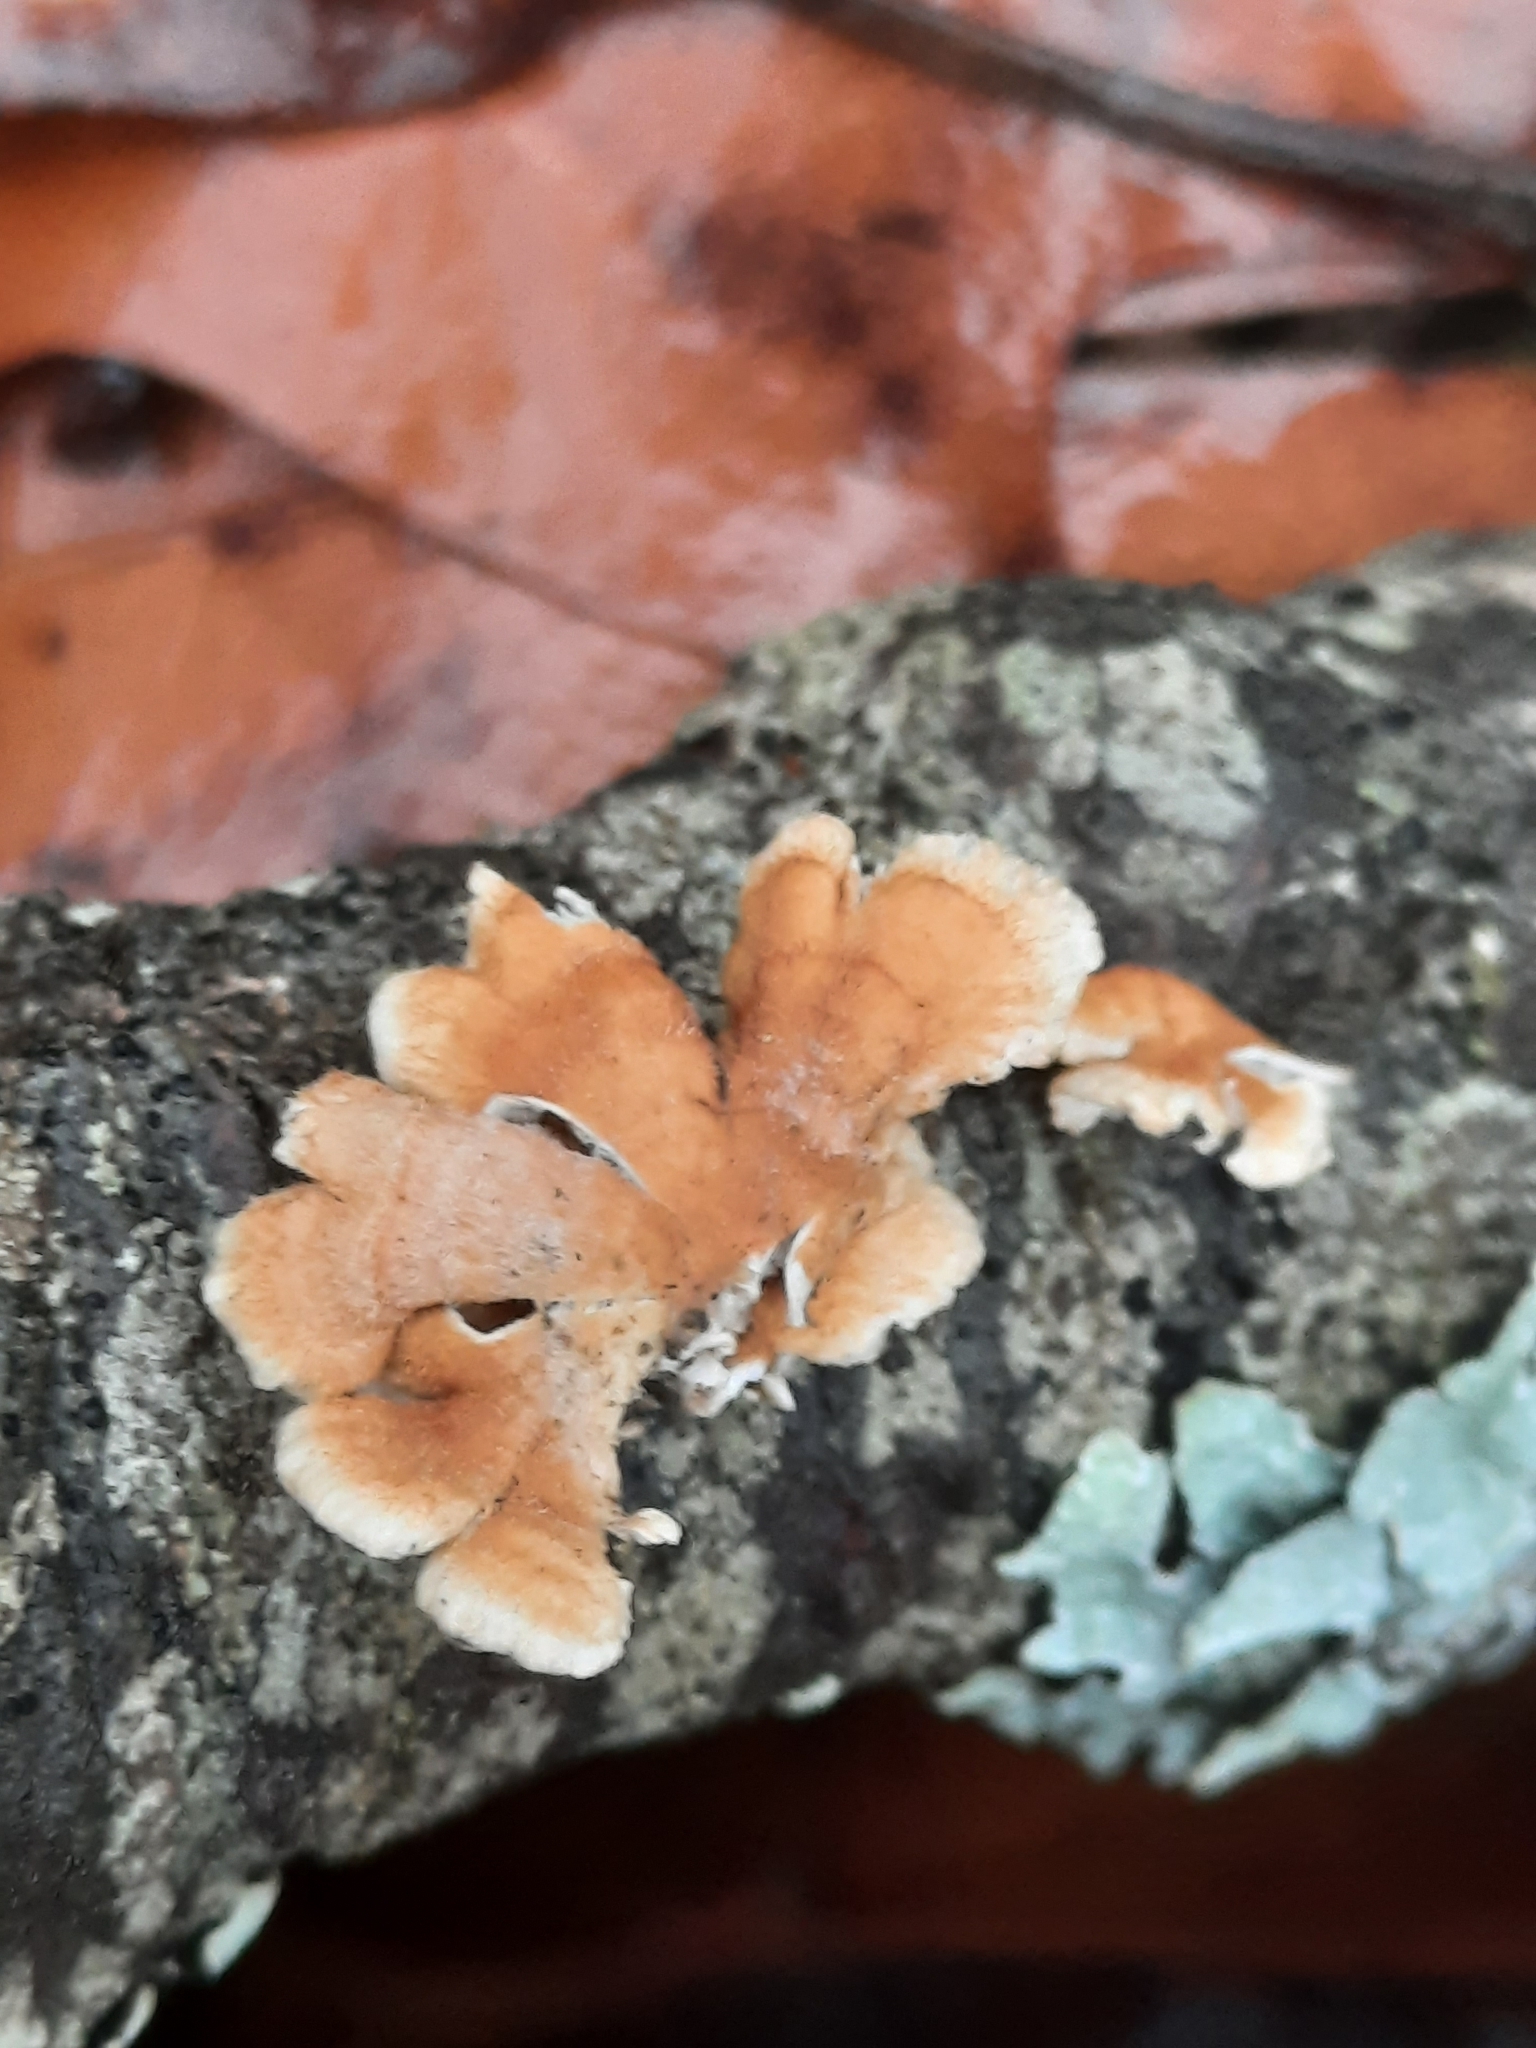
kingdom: Fungi
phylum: Basidiomycota
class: Agaricomycetes
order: Amylocorticiales
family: Amylocorticiaceae
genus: Plicaturopsis
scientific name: Plicaturopsis crispa
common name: Crimped gill
